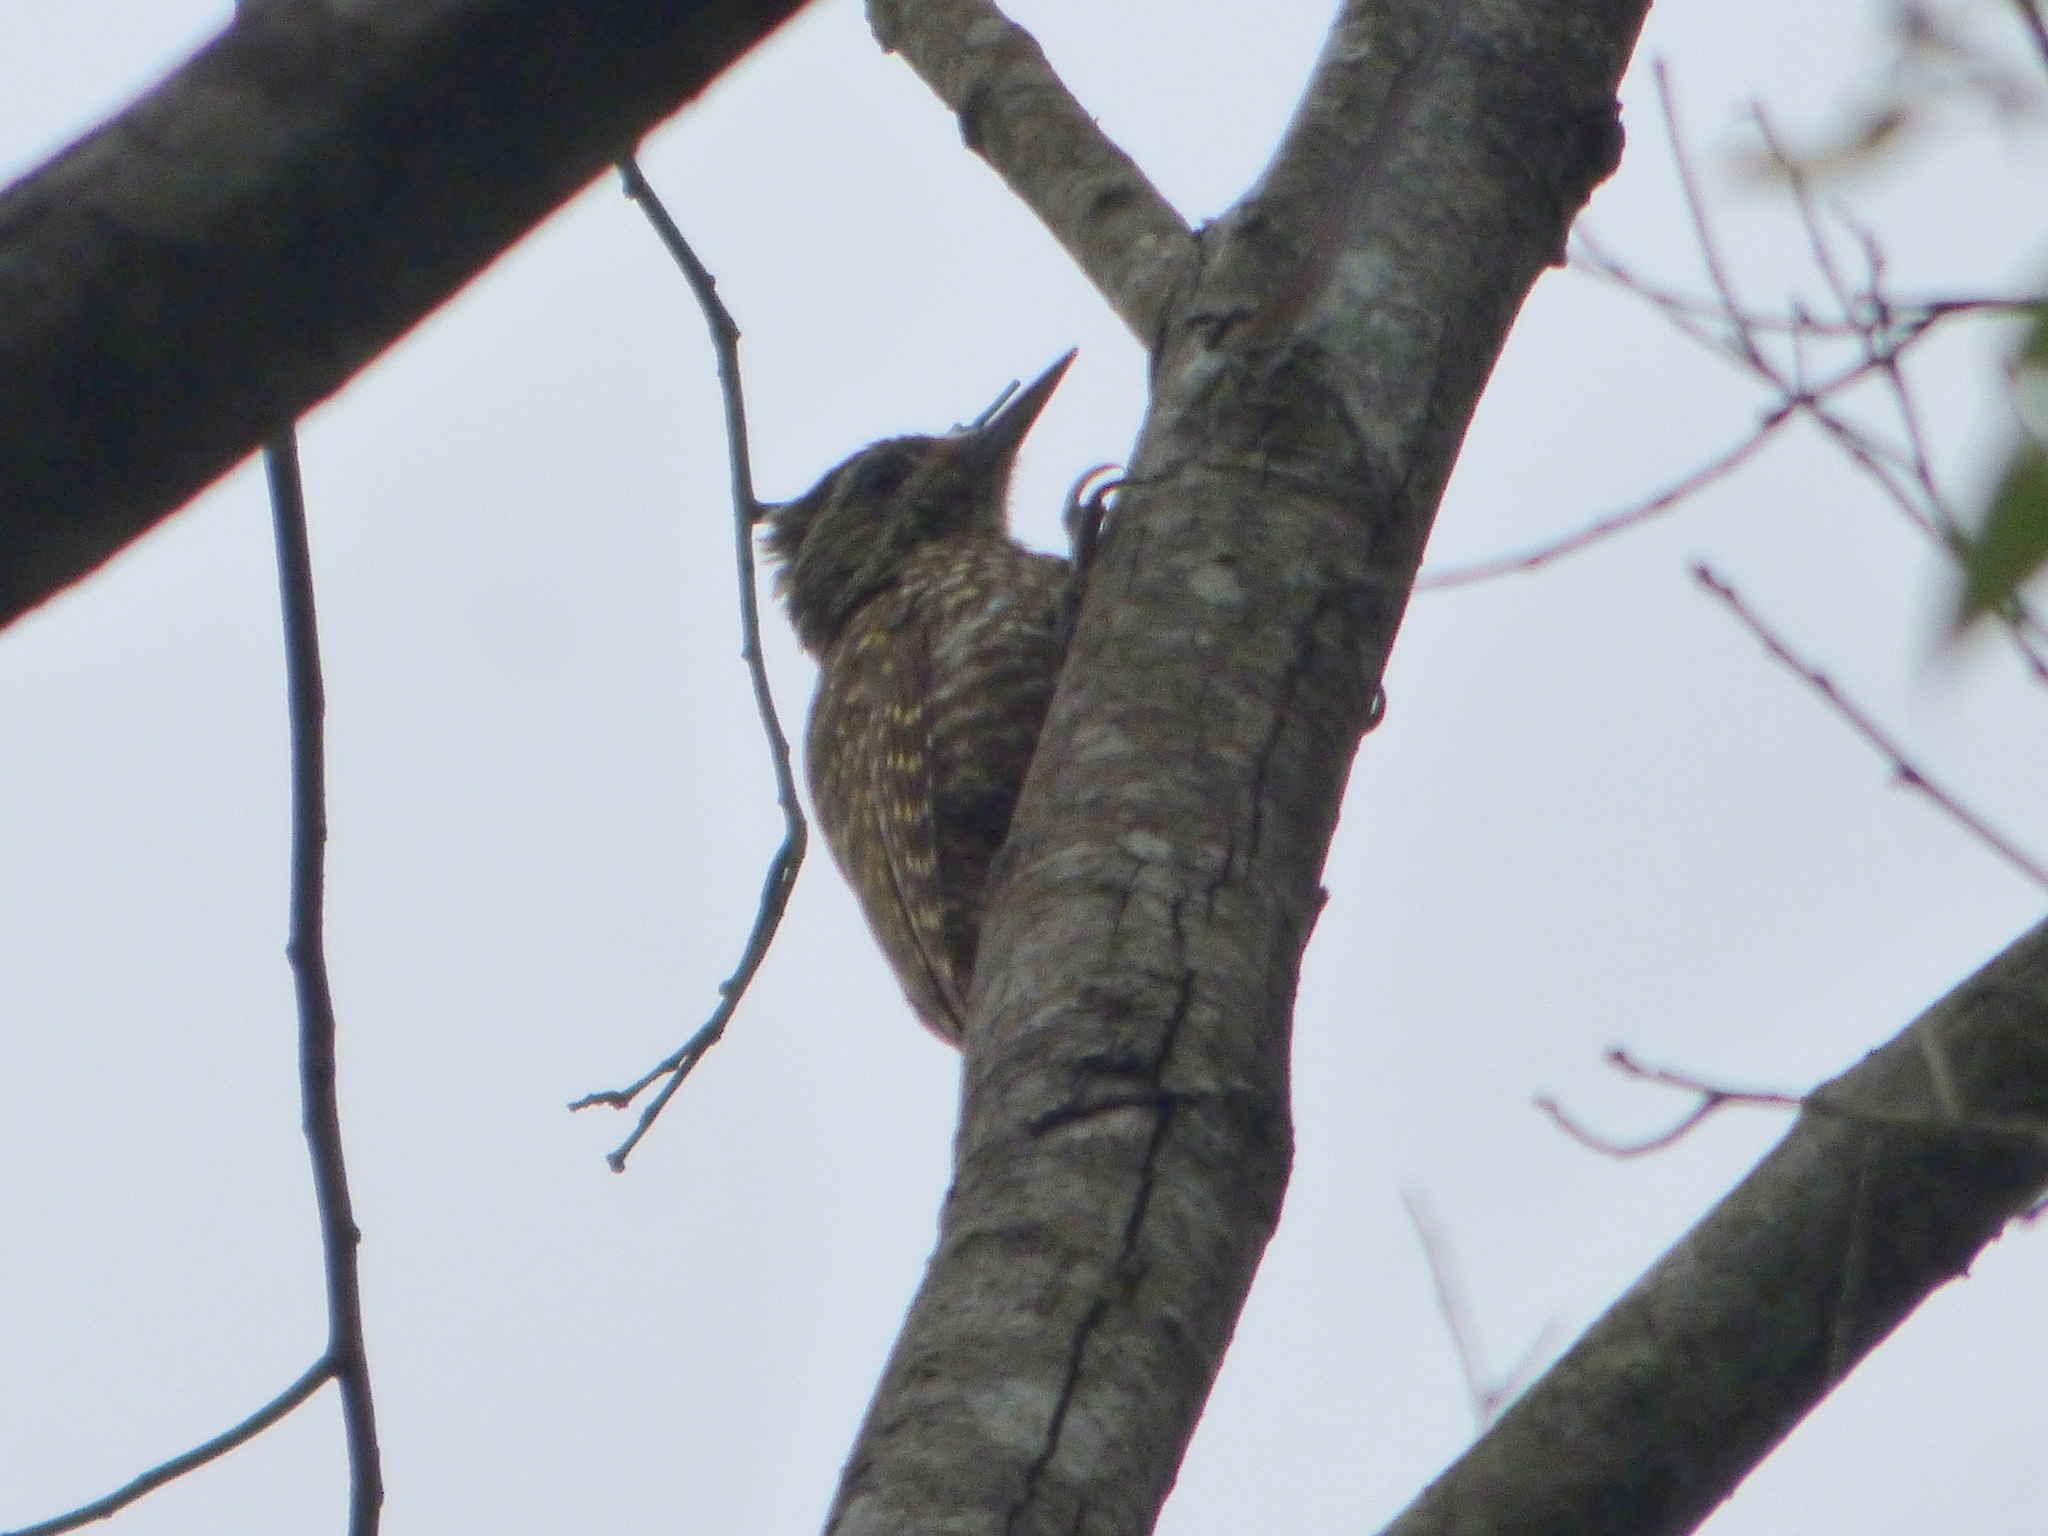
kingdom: Animalia
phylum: Chordata
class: Aves
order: Piciformes
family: Picidae
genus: Veniliornis
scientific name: Veniliornis spilogaster
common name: White-spotted woodpecker
